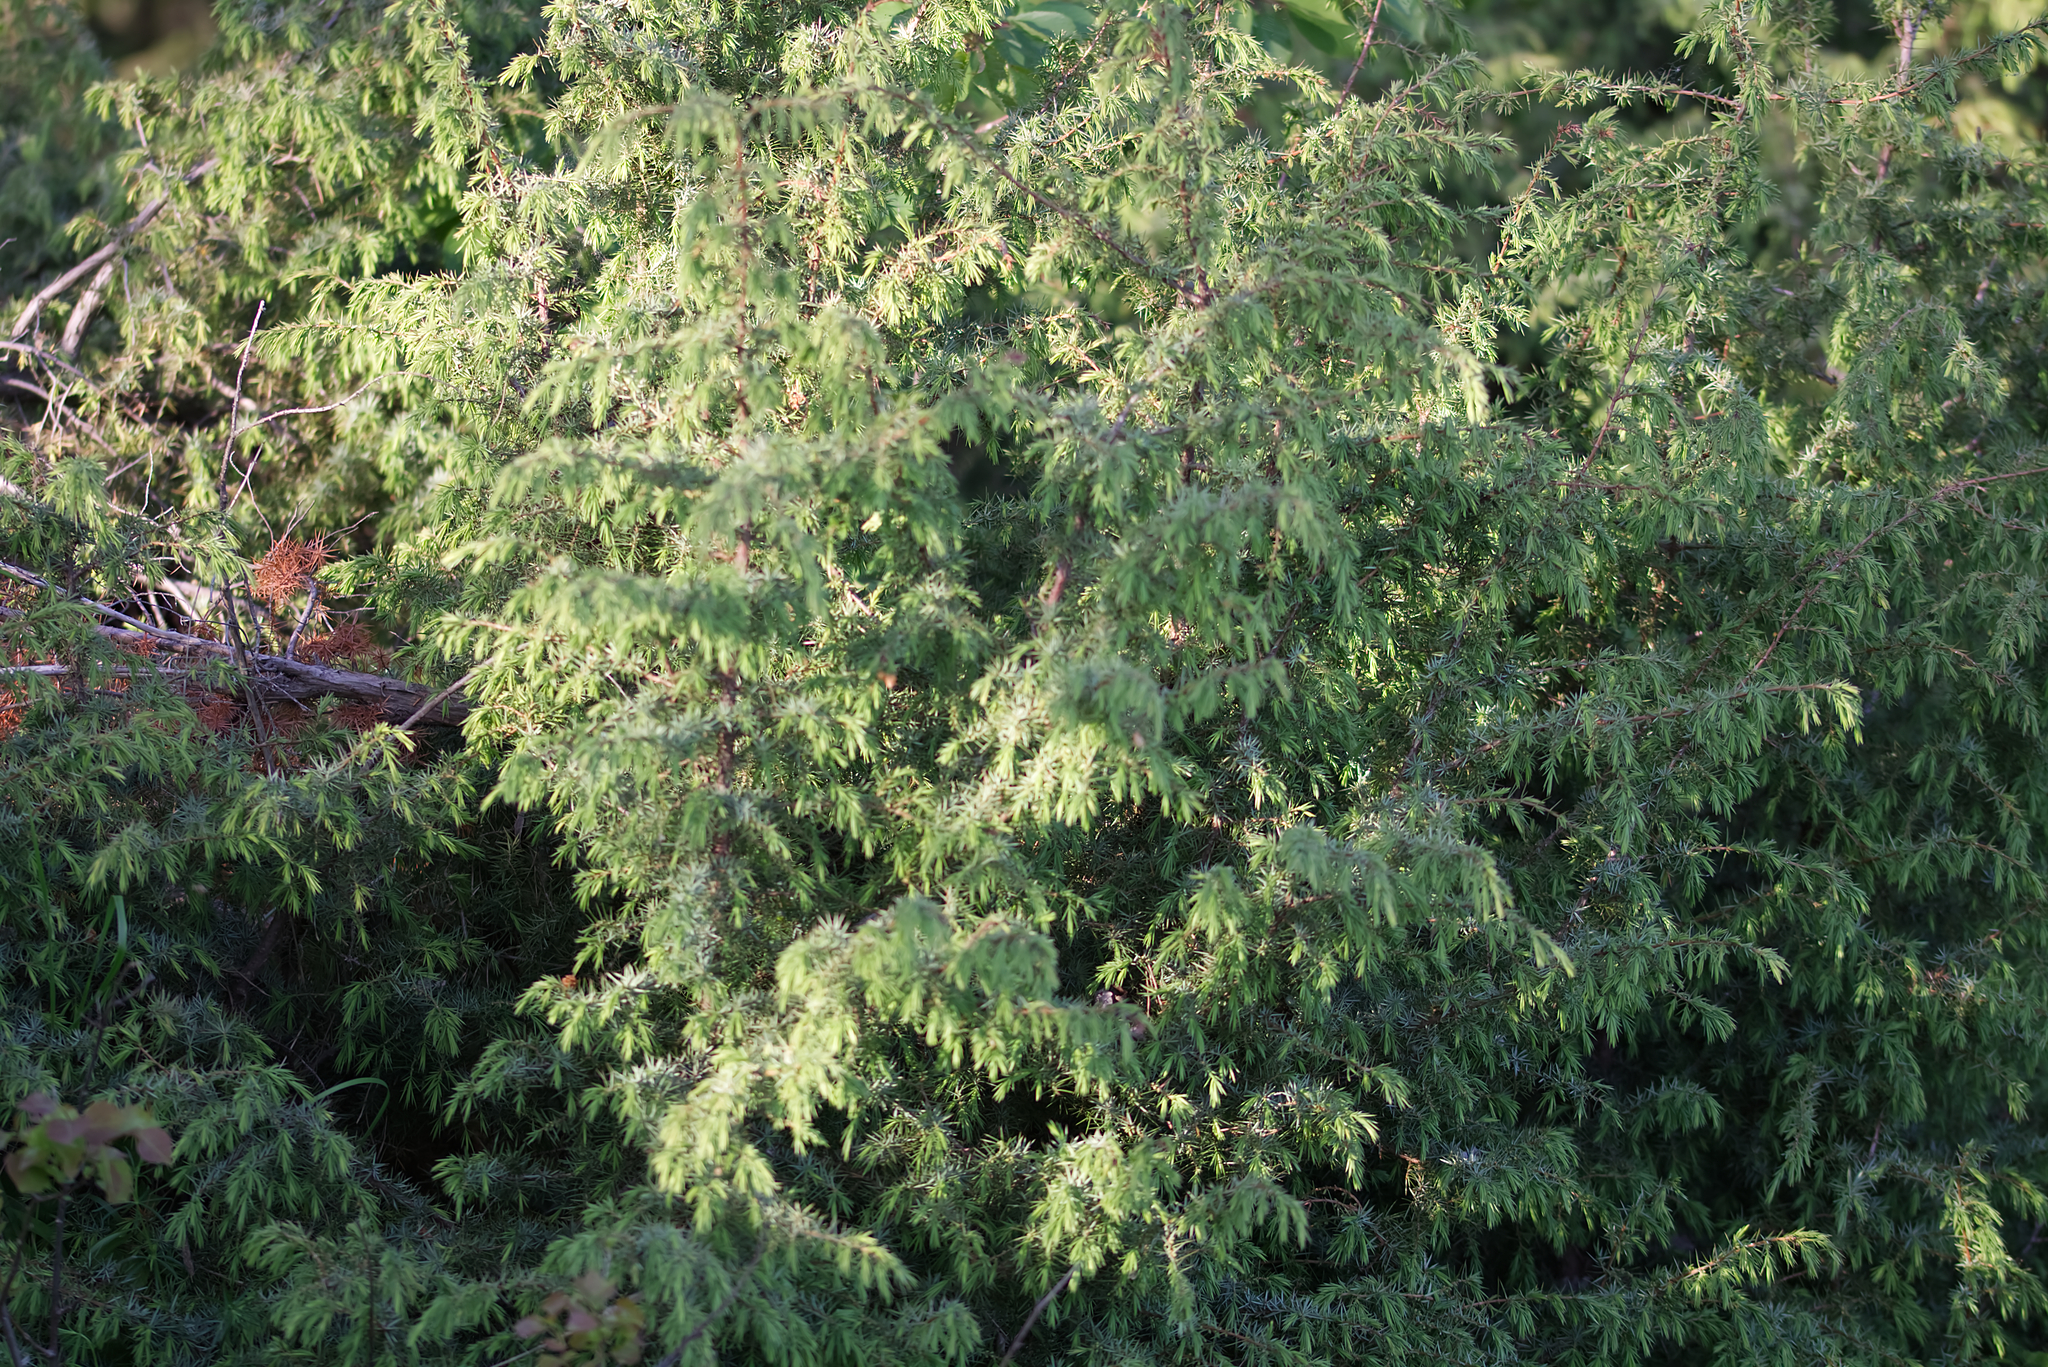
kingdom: Plantae
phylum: Tracheophyta
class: Pinopsida
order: Pinales
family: Cupressaceae
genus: Juniperus
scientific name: Juniperus communis
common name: Common juniper
